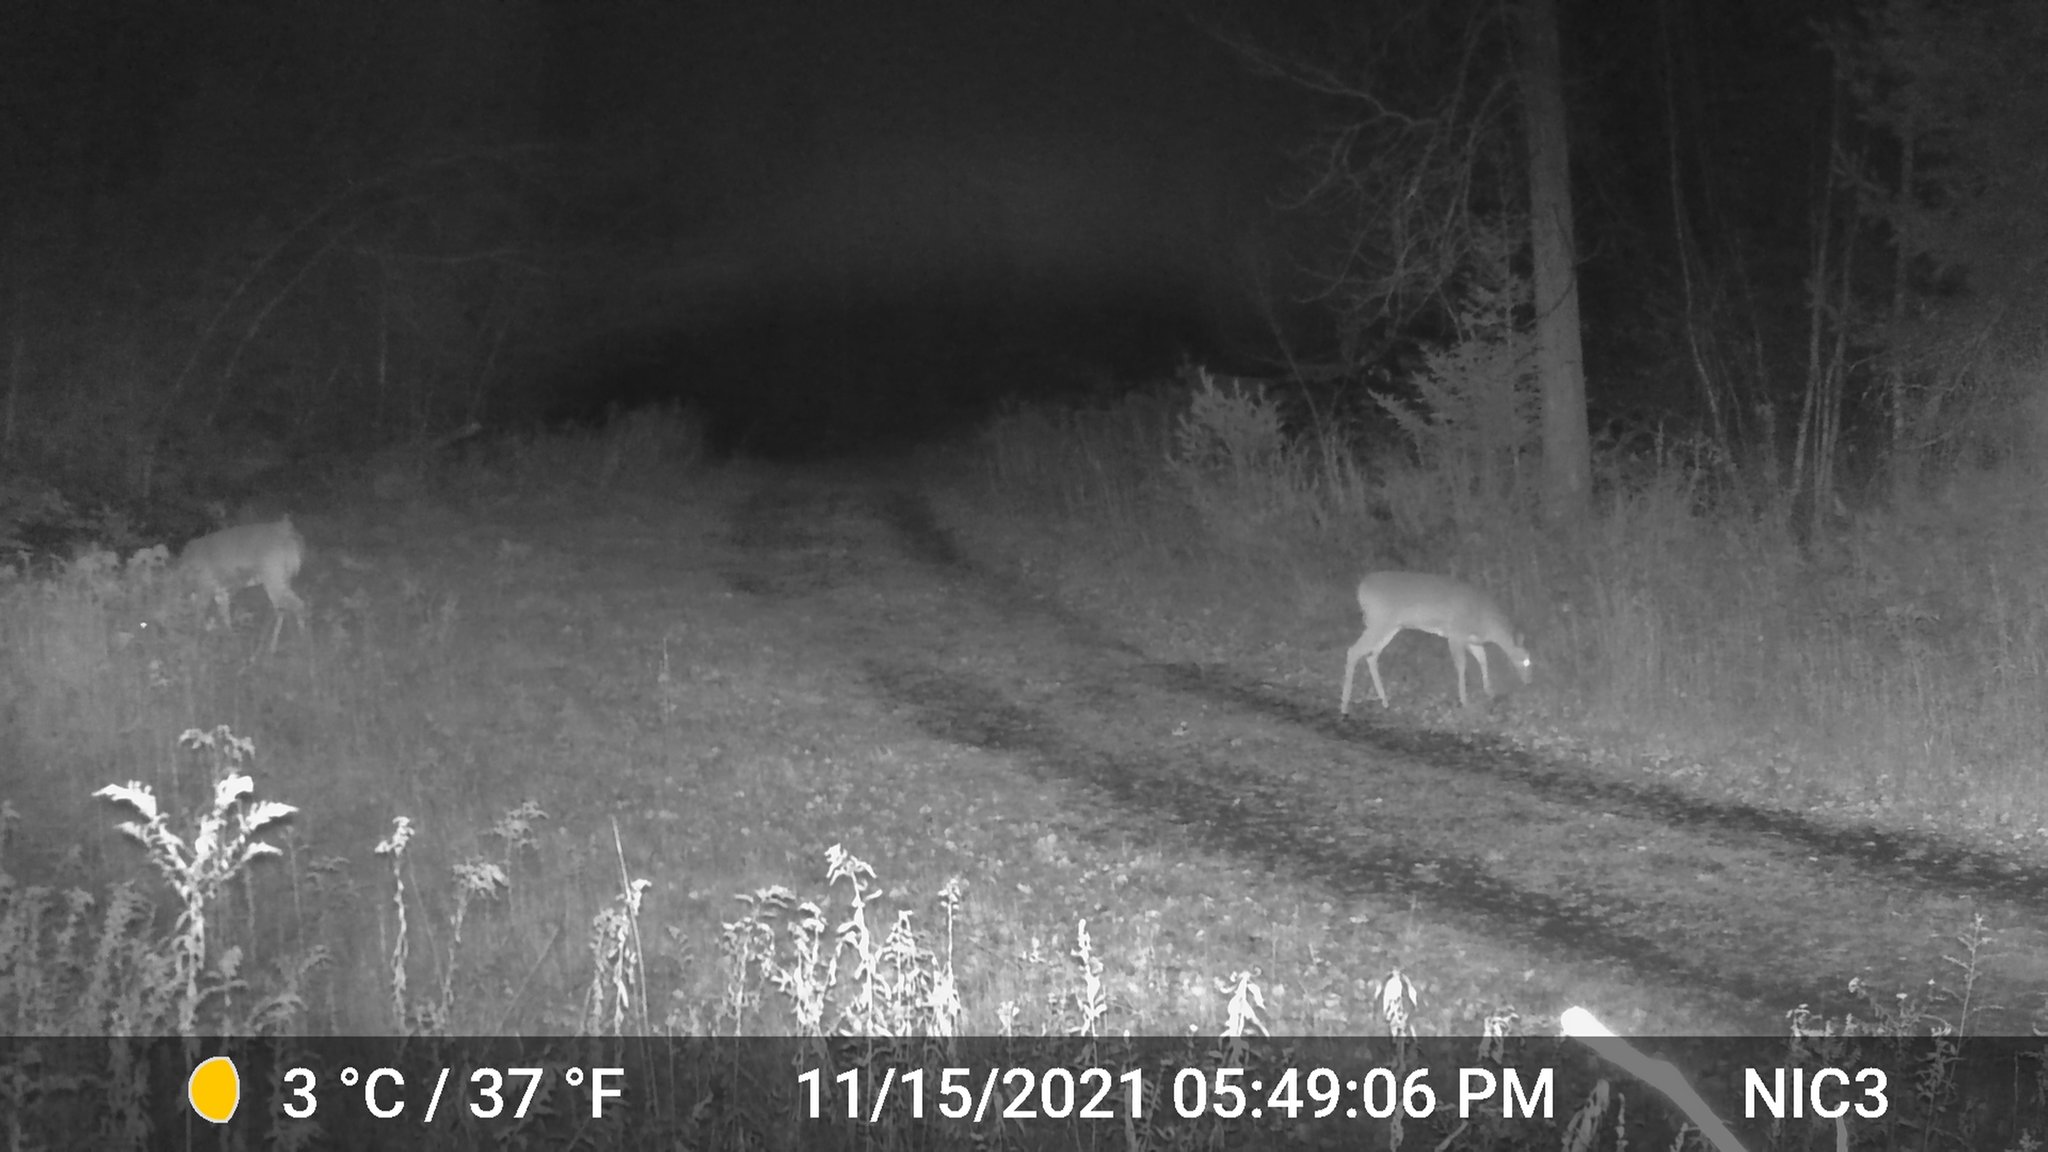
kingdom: Animalia
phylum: Chordata
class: Mammalia
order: Artiodactyla
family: Cervidae
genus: Odocoileus
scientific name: Odocoileus virginianus
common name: White-tailed deer
